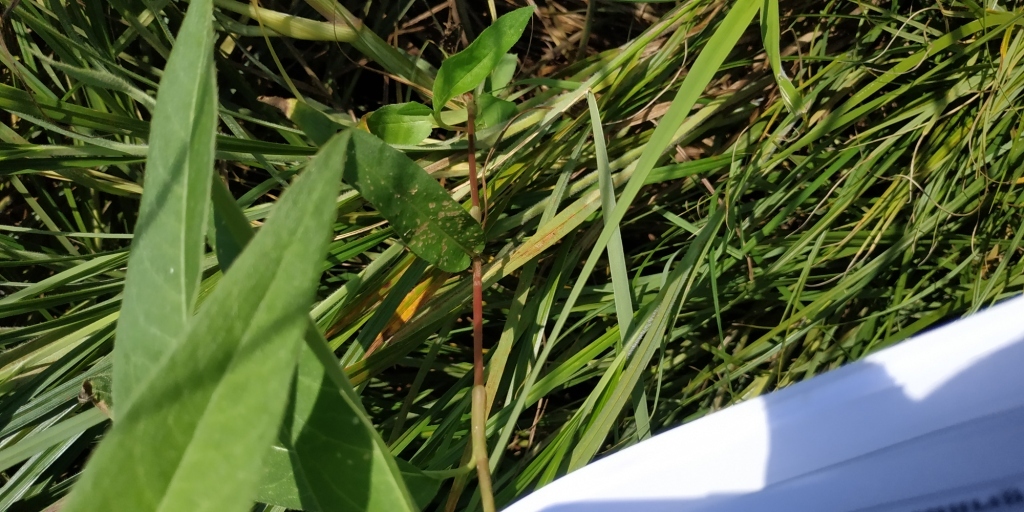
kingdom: Plantae
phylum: Tracheophyta
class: Magnoliopsida
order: Ranunculales
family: Ranunculaceae
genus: Ranunculus
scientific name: Ranunculus lingua
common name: Greater spearwort
